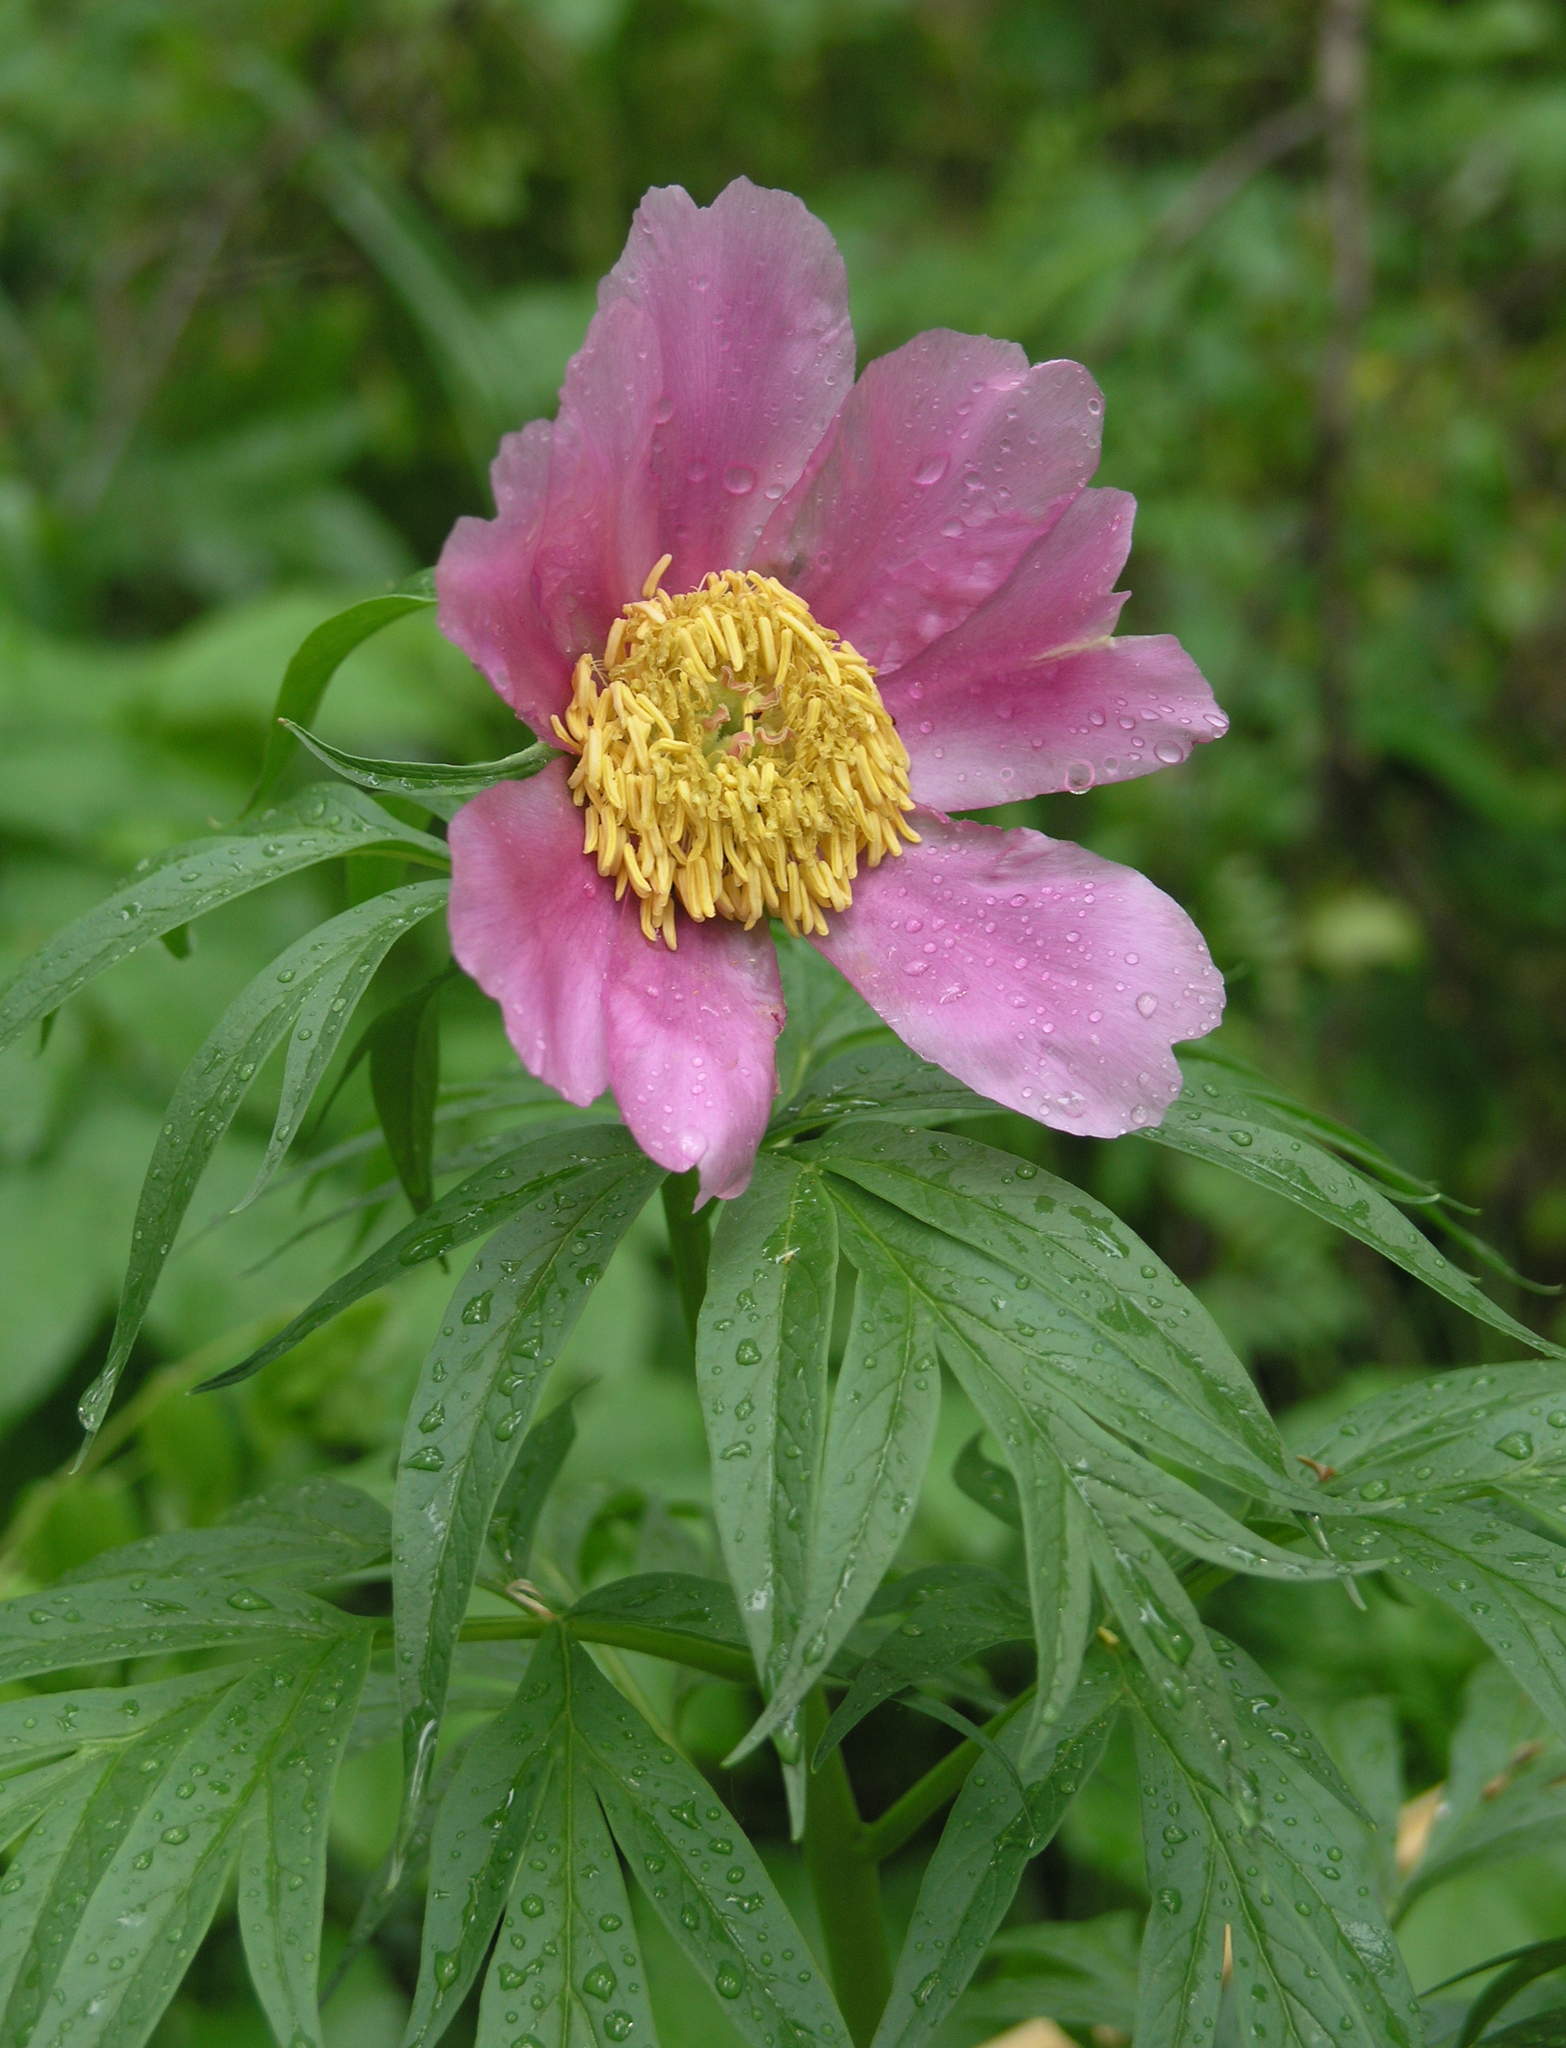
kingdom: Plantae
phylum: Tracheophyta
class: Magnoliopsida
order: Saxifragales
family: Paeoniaceae
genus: Paeonia
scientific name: Paeonia anomala
